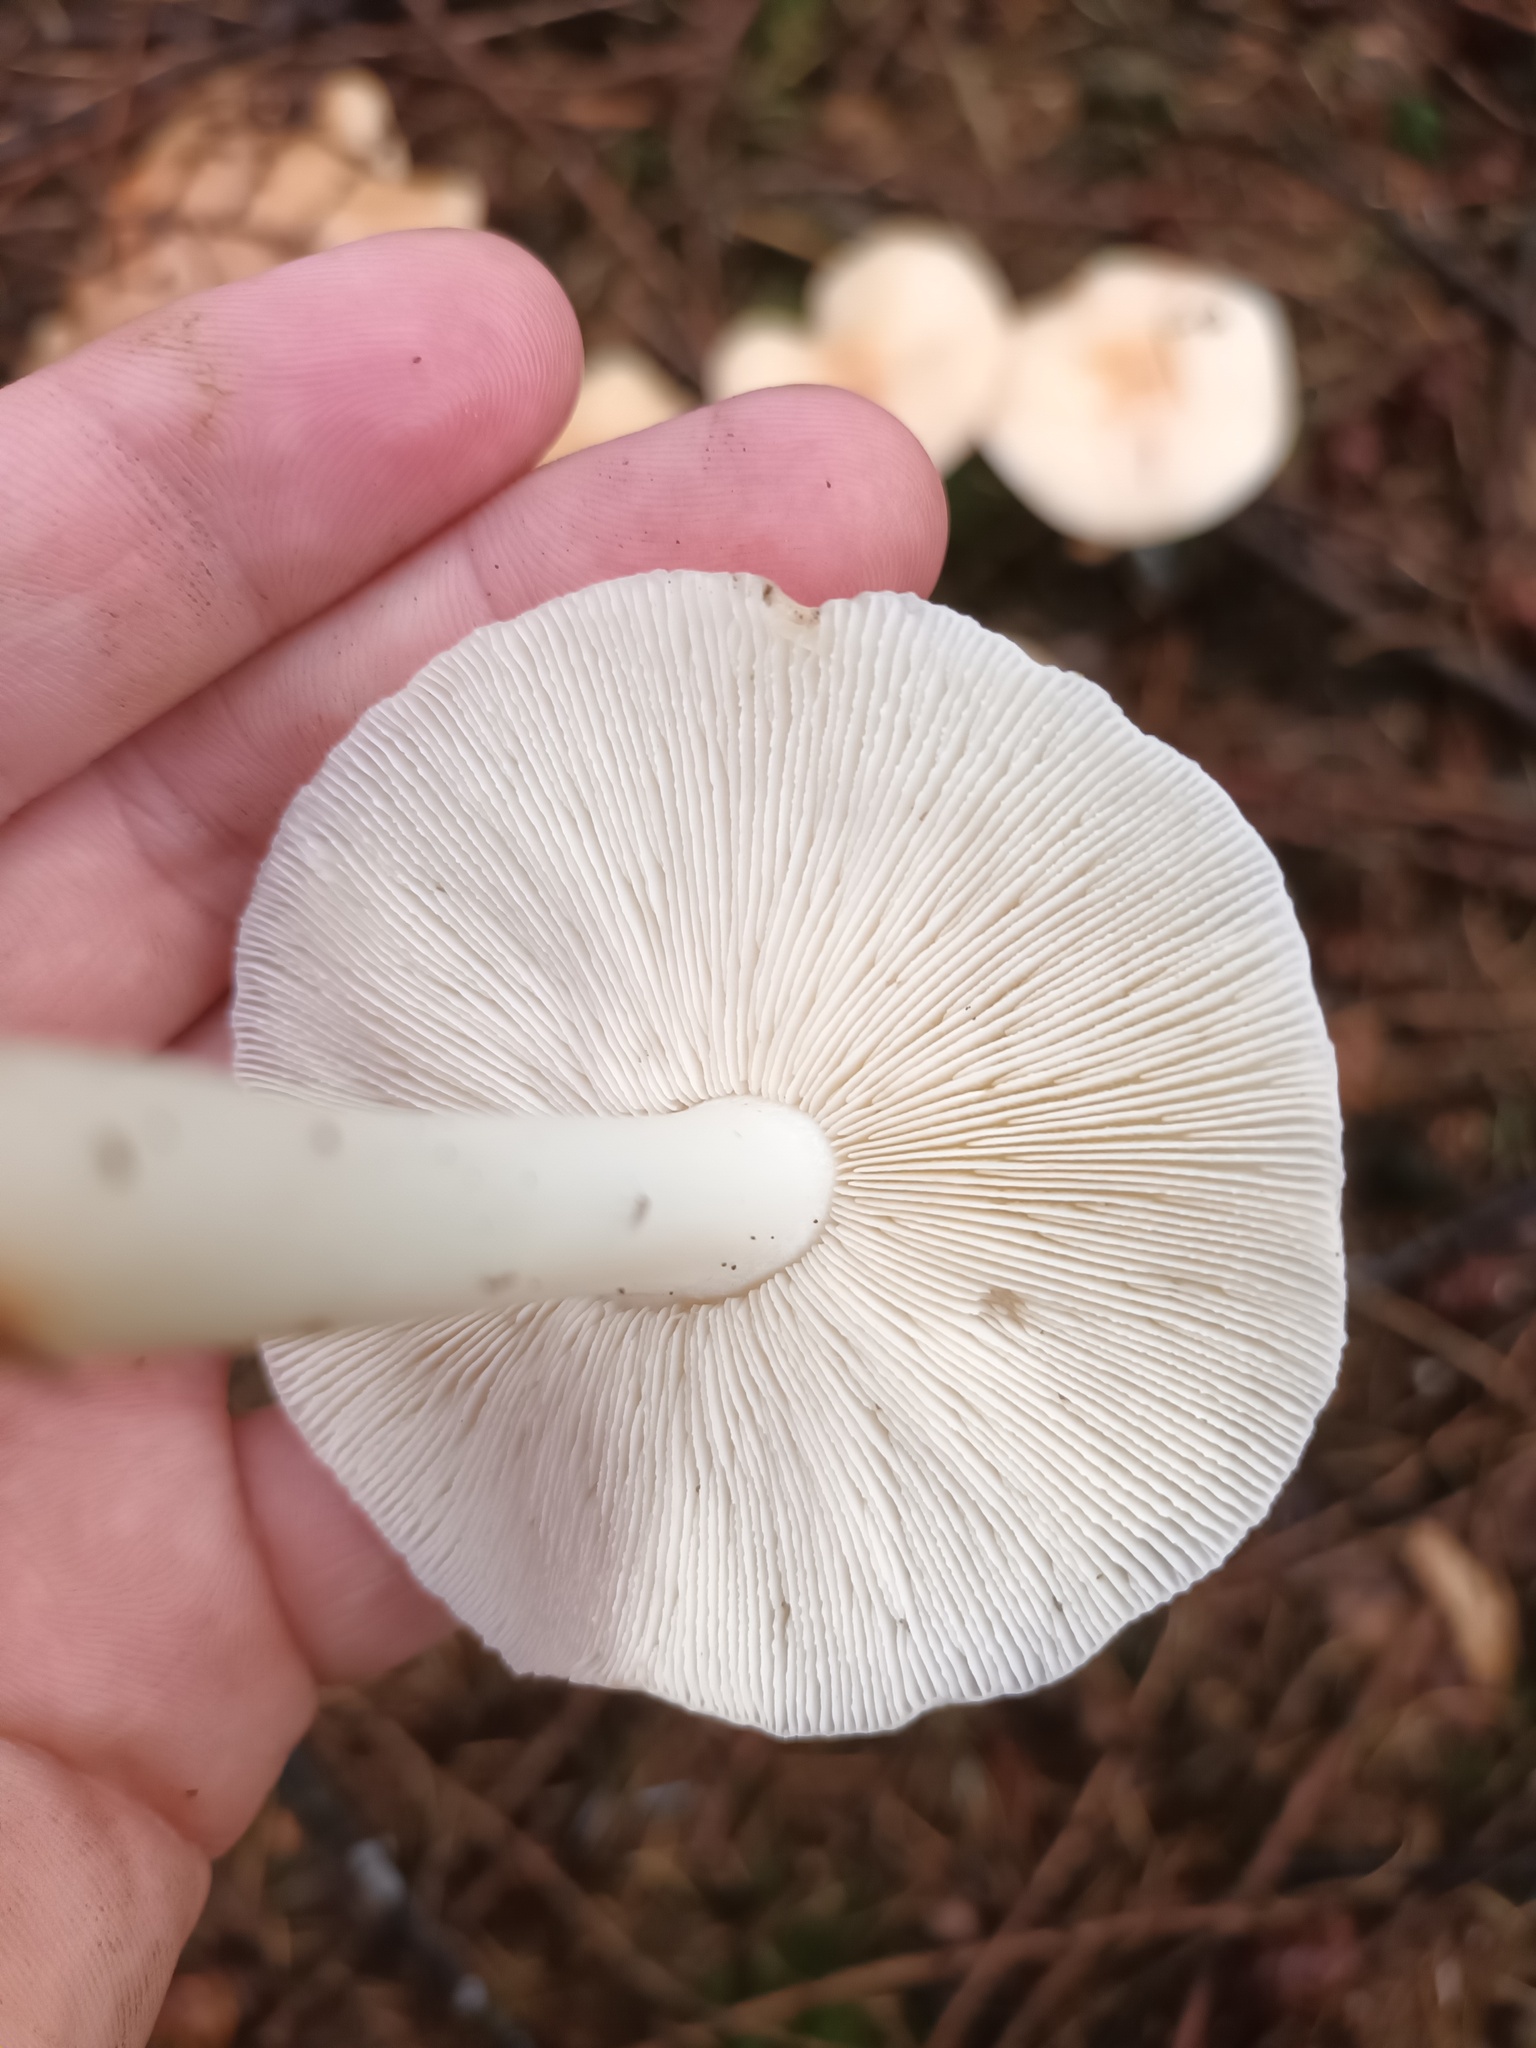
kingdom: Fungi
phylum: Basidiomycota
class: Agaricomycetes
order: Agaricales
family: Omphalotaceae
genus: Rhodocollybia
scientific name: Rhodocollybia maculata
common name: Spotted tough-shank
